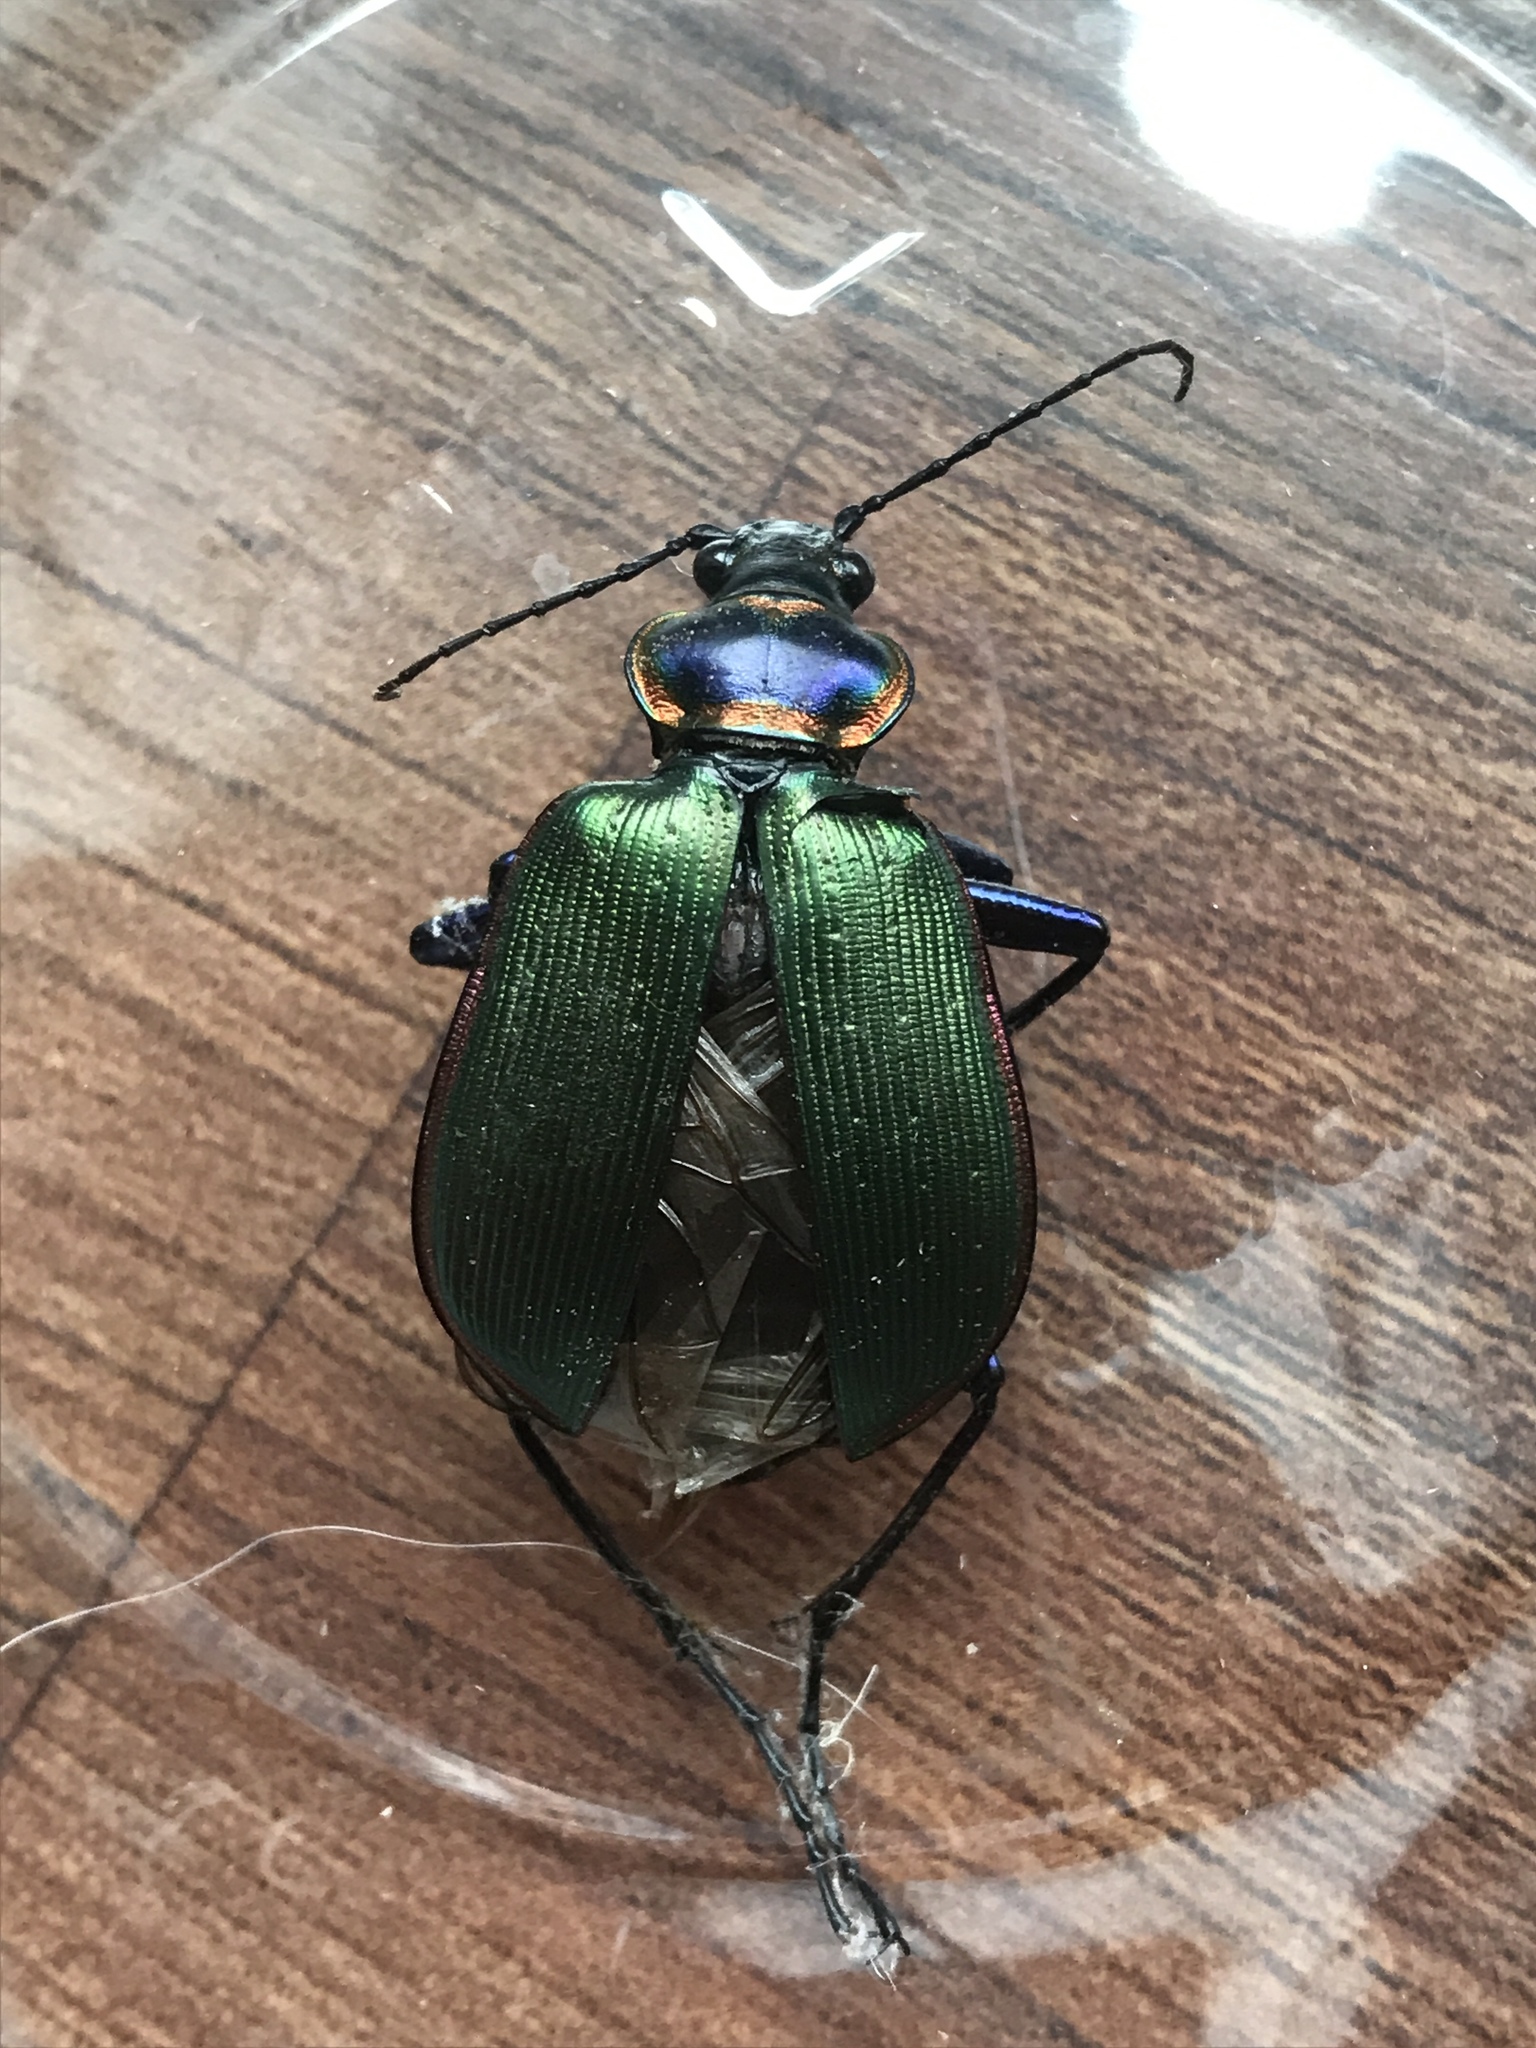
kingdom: Animalia
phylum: Arthropoda
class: Insecta
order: Coleoptera
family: Carabidae
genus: Calosoma
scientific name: Calosoma scrutator
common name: Fiery searcher beetle
